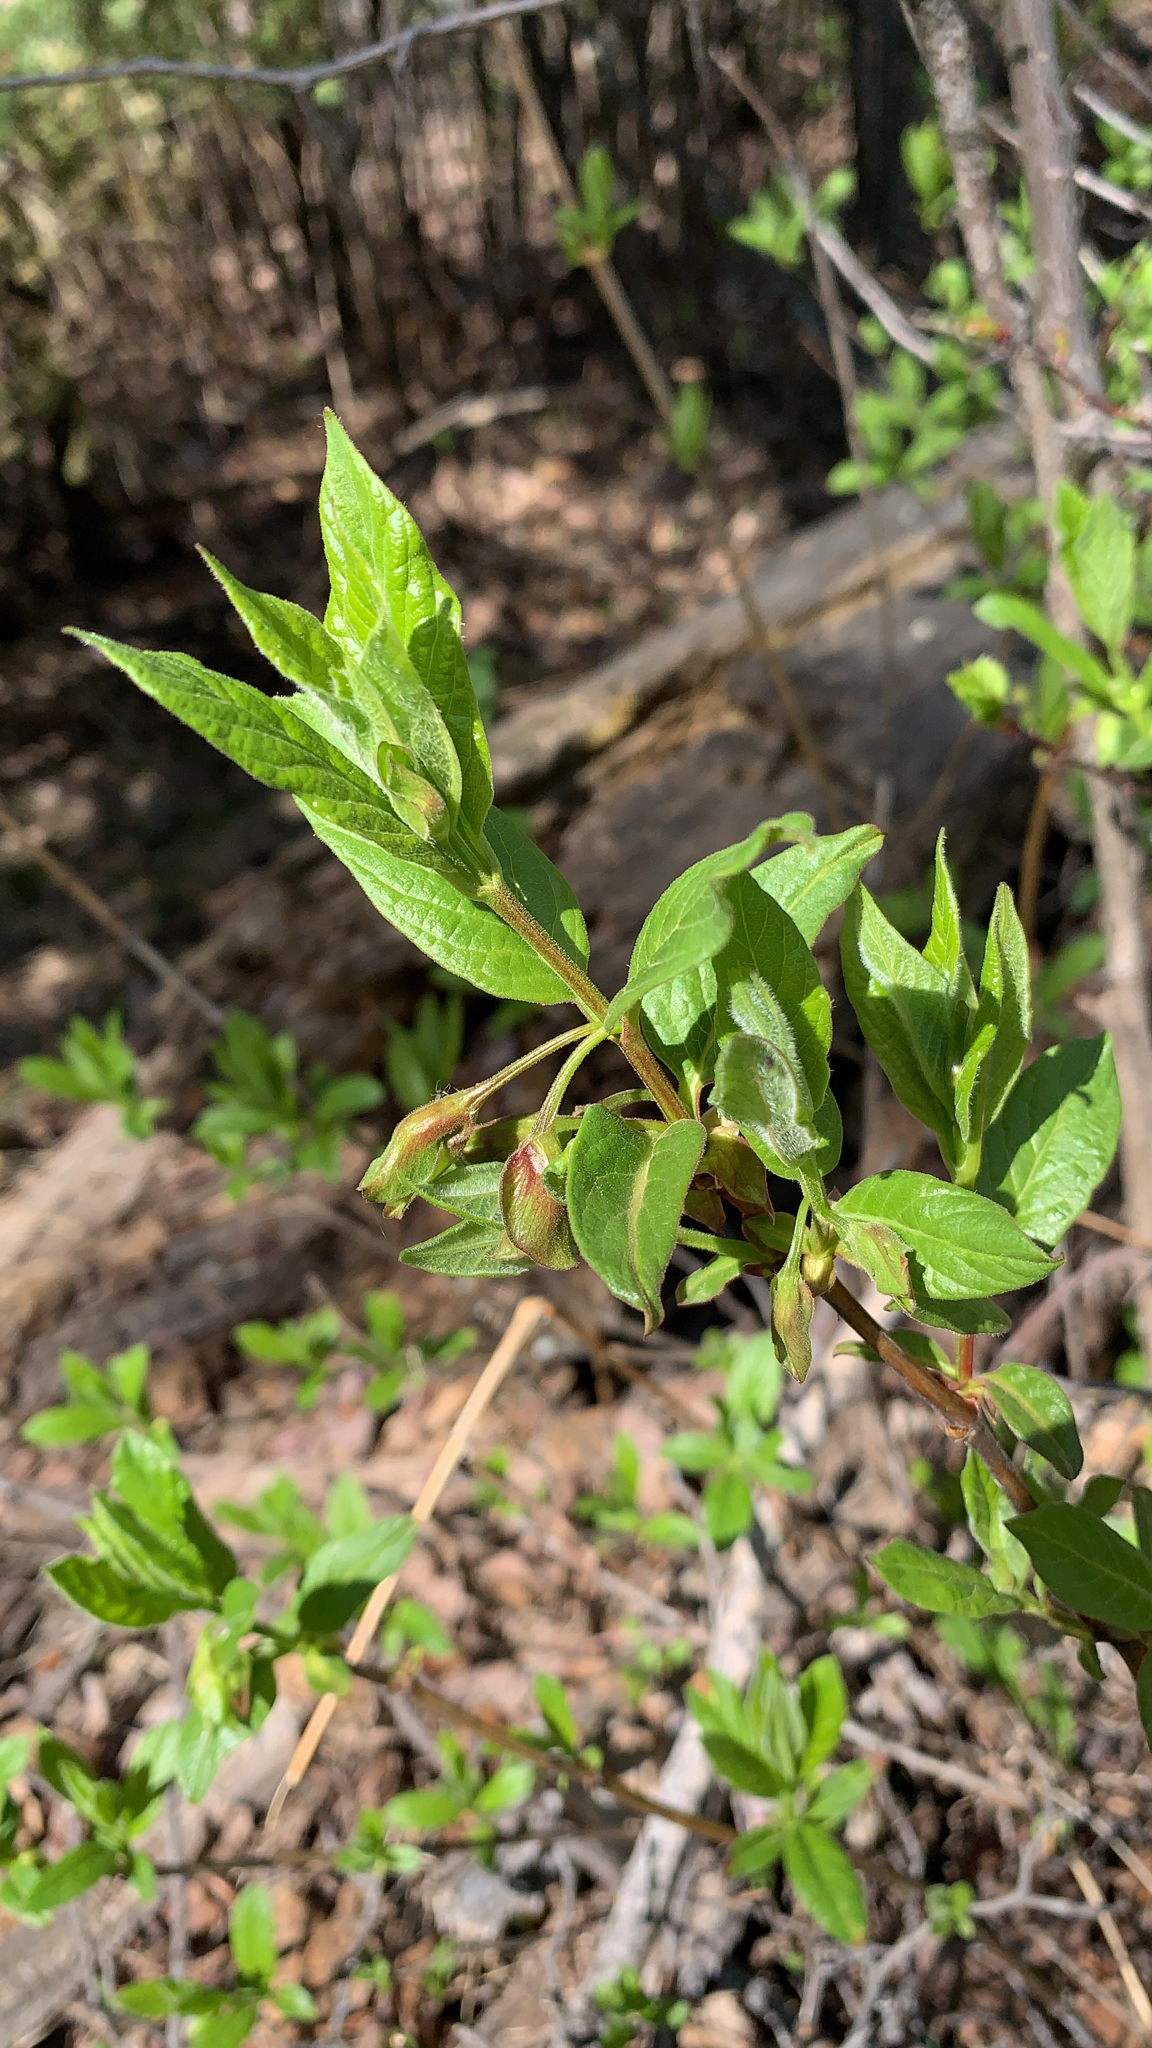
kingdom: Plantae
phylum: Tracheophyta
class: Magnoliopsida
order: Dipsacales
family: Caprifoliaceae
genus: Lonicera
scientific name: Lonicera involucrata
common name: Californian honeysuckle
